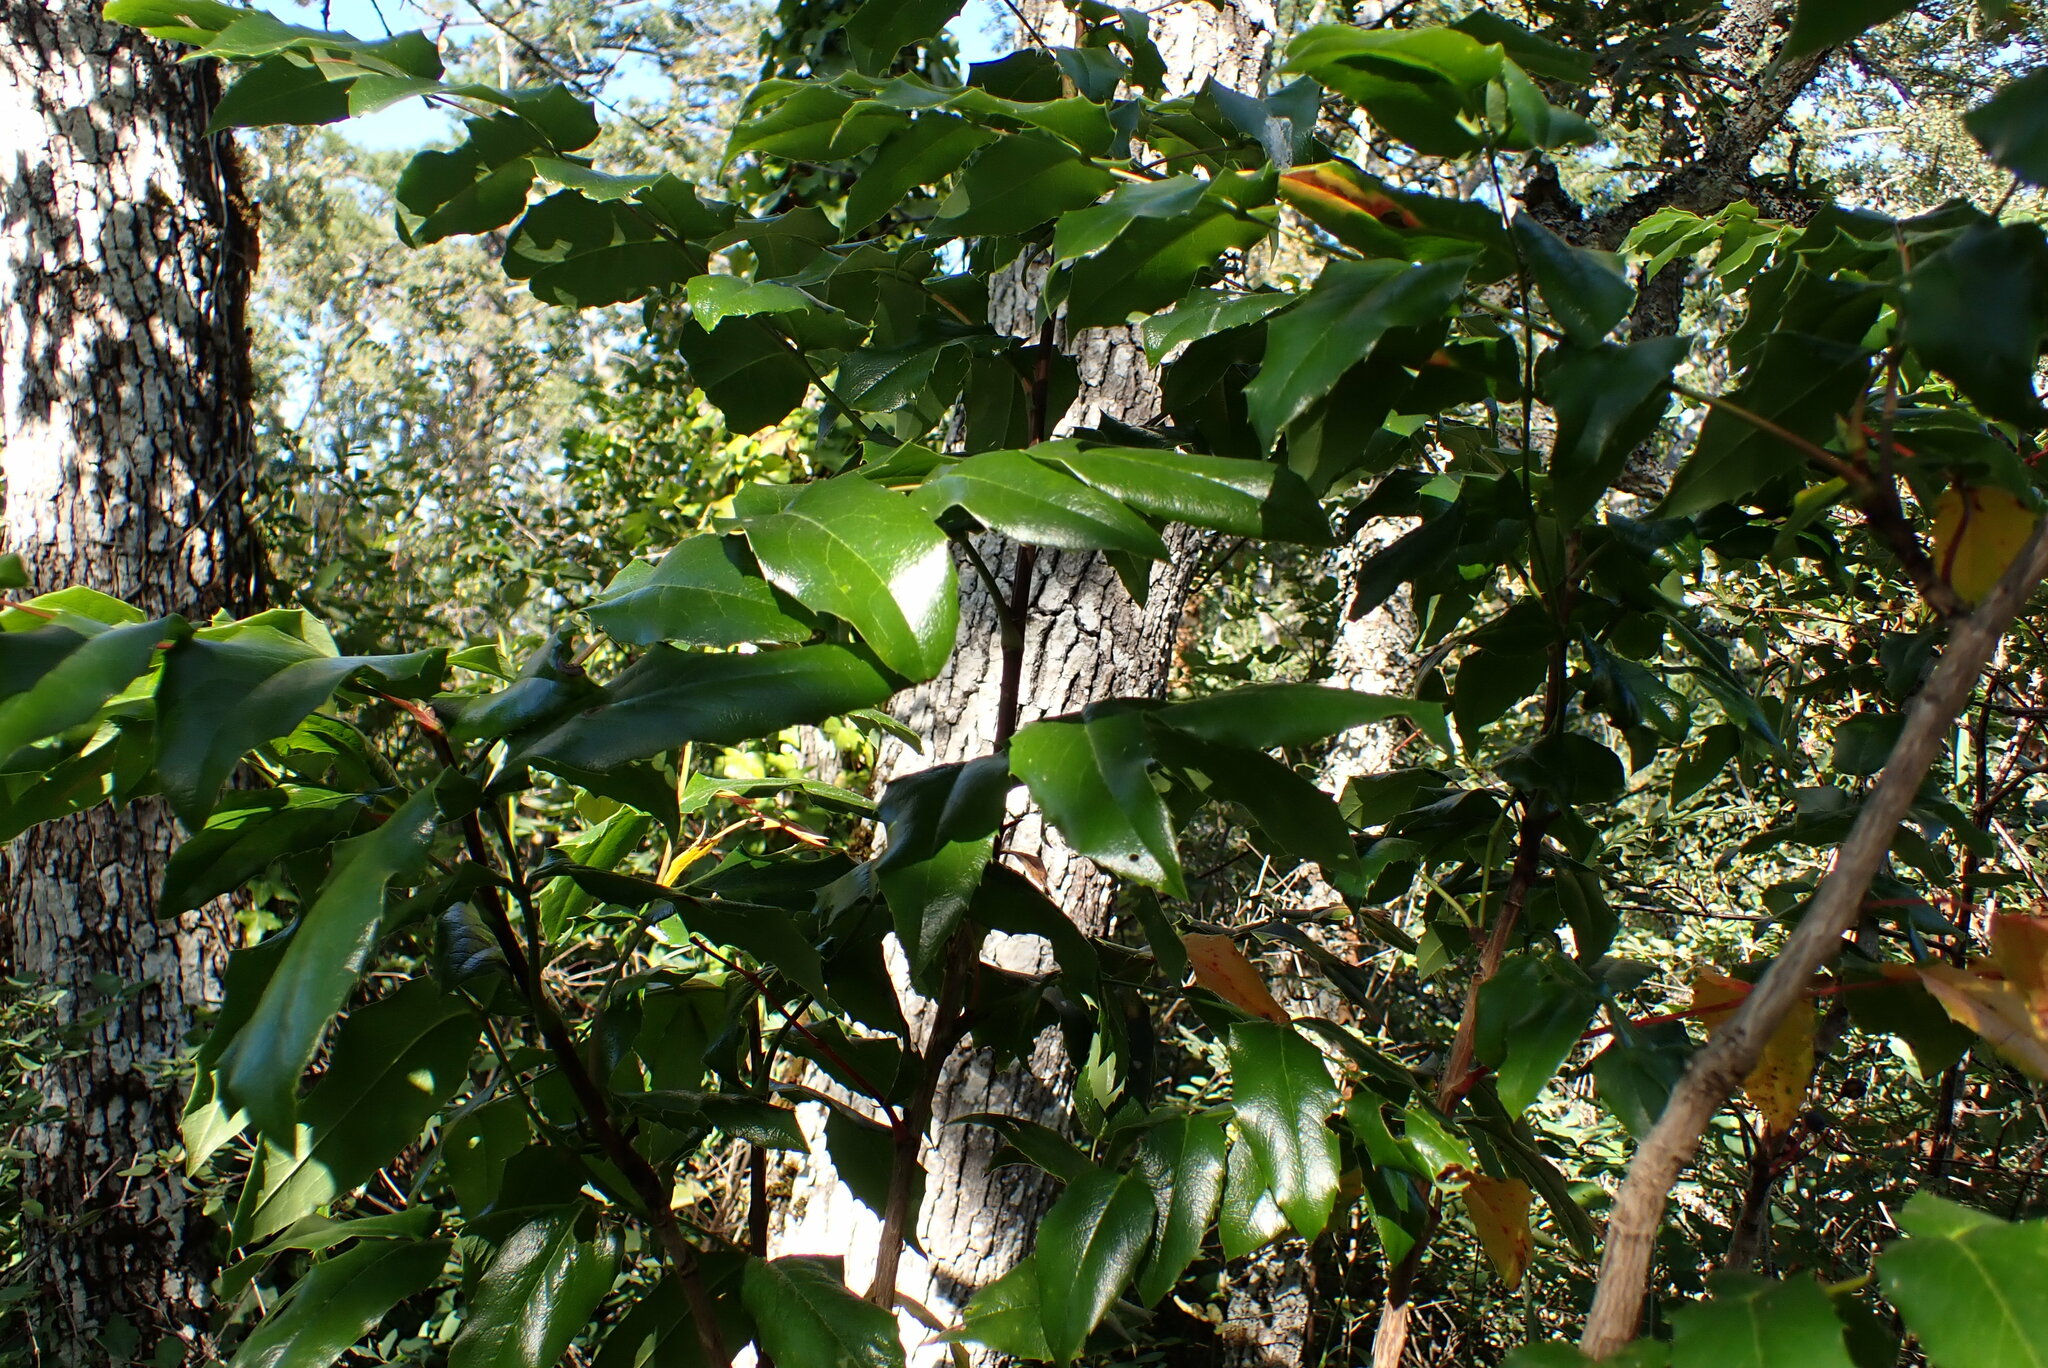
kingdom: Plantae
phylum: Tracheophyta
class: Magnoliopsida
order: Ranunculales
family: Berberidaceae
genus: Mahonia
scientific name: Mahonia aquifolium
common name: Oregon-grape
